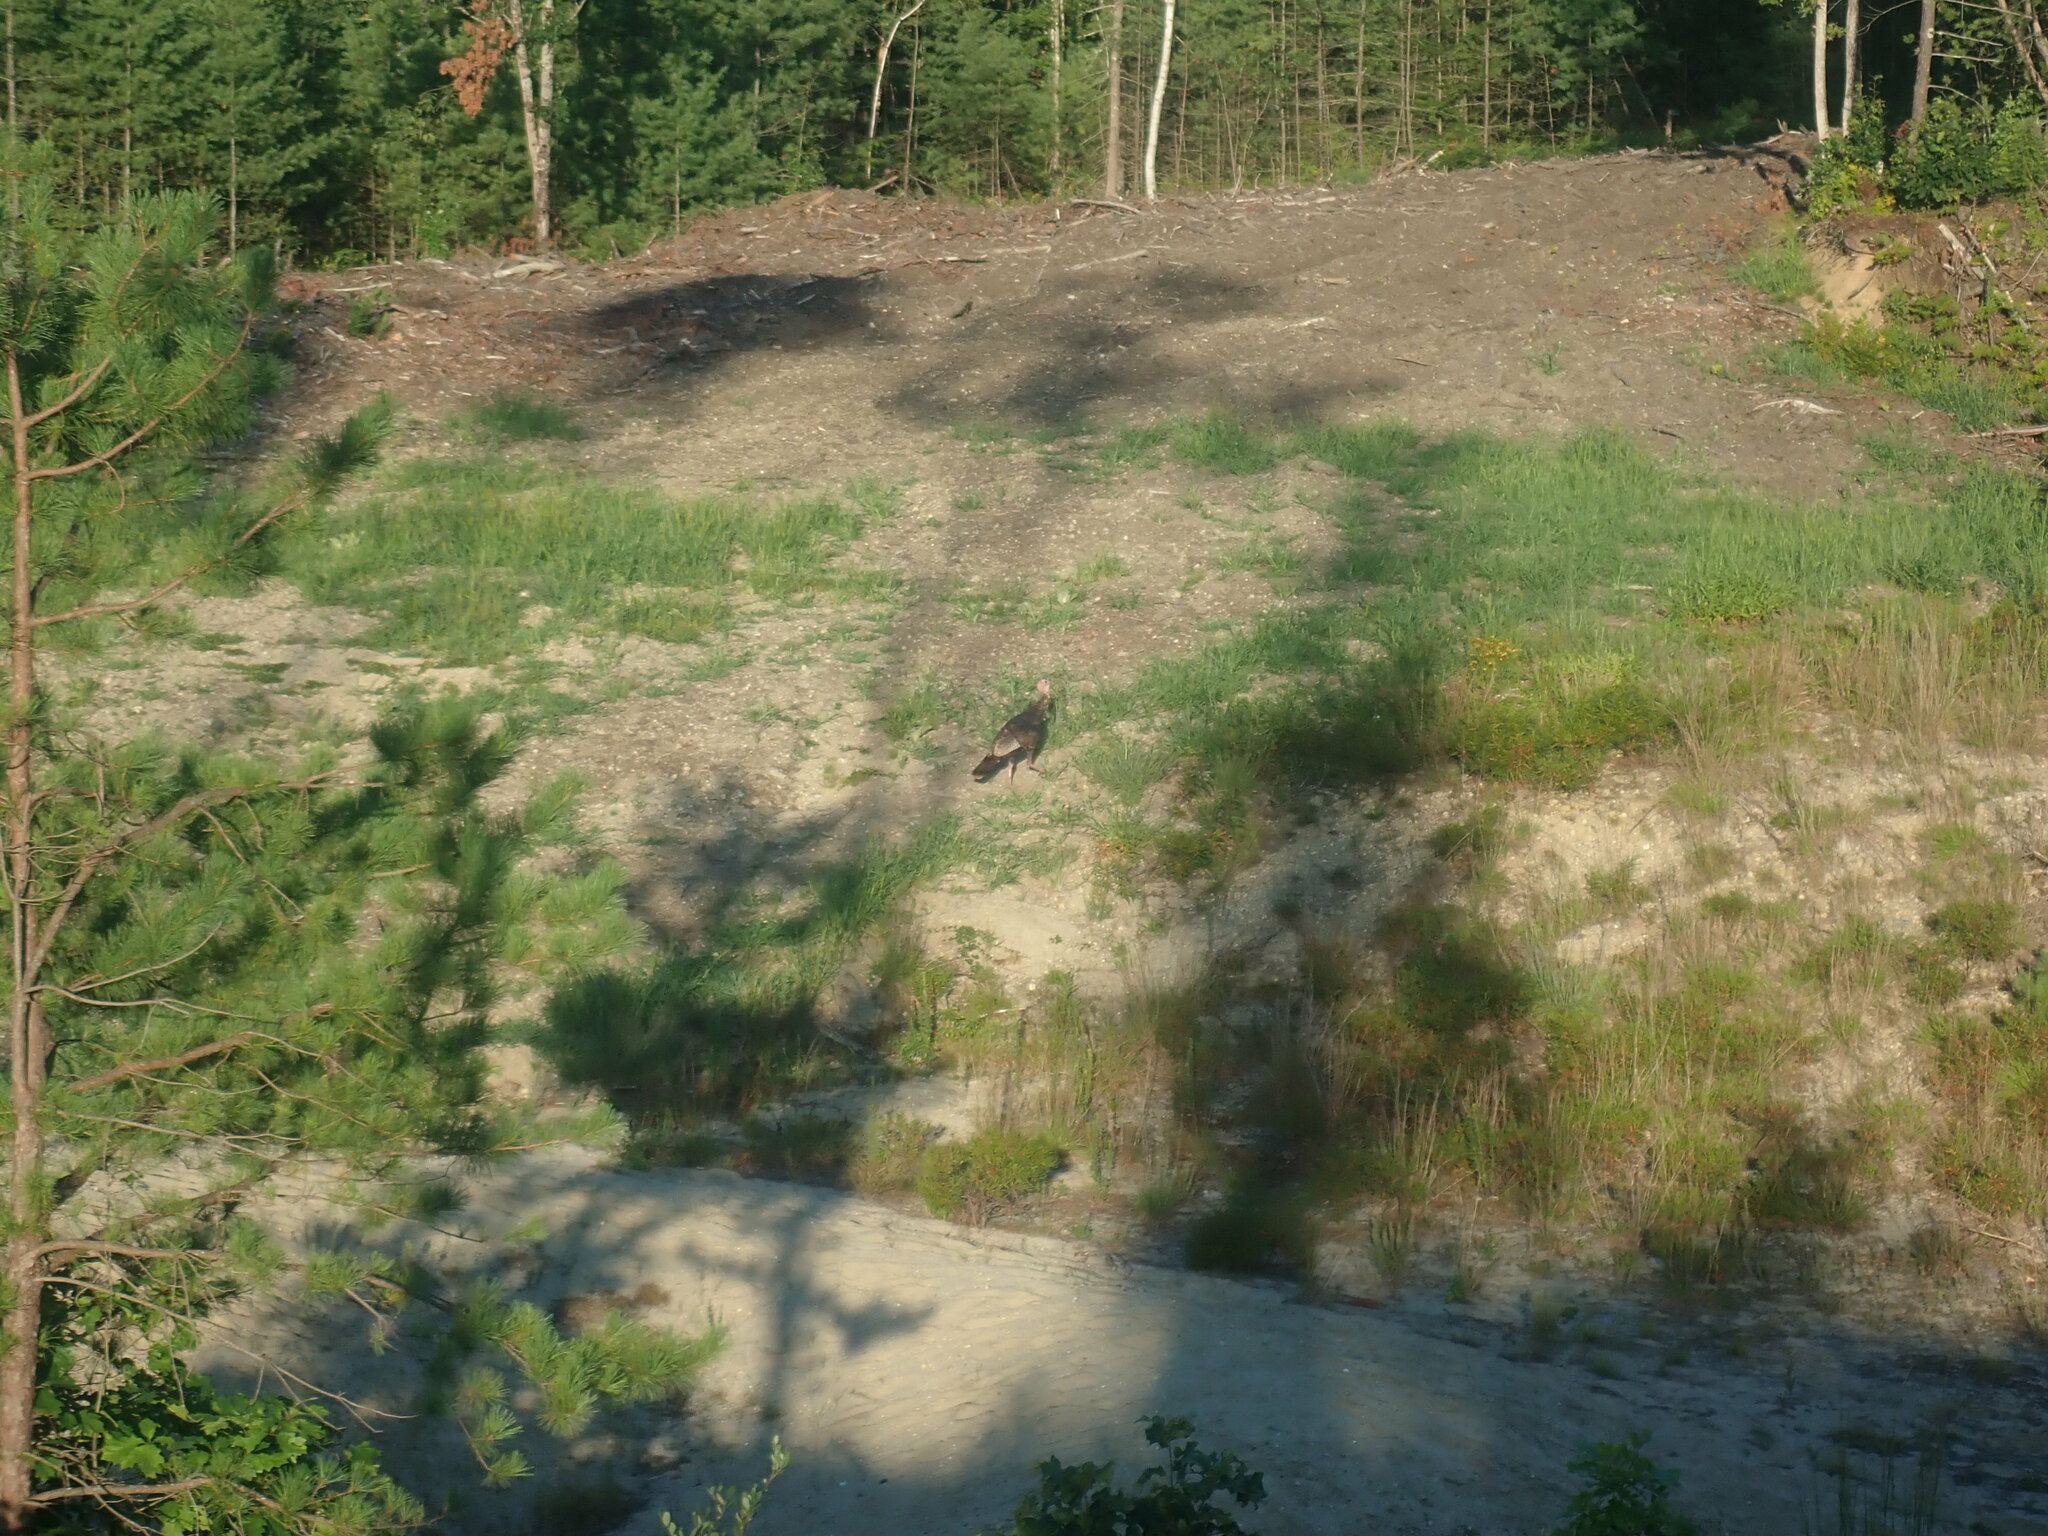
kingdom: Animalia
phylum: Chordata
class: Aves
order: Galliformes
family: Phasianidae
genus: Meleagris
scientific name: Meleagris gallopavo
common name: Wild turkey
